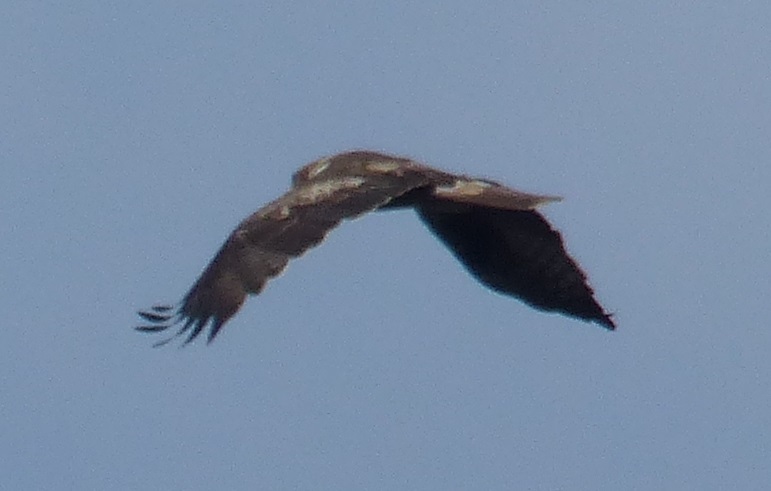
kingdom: Animalia
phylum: Chordata
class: Aves
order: Accipitriformes
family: Accipitridae
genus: Circus
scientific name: Circus aeruginosus
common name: Western marsh harrier
